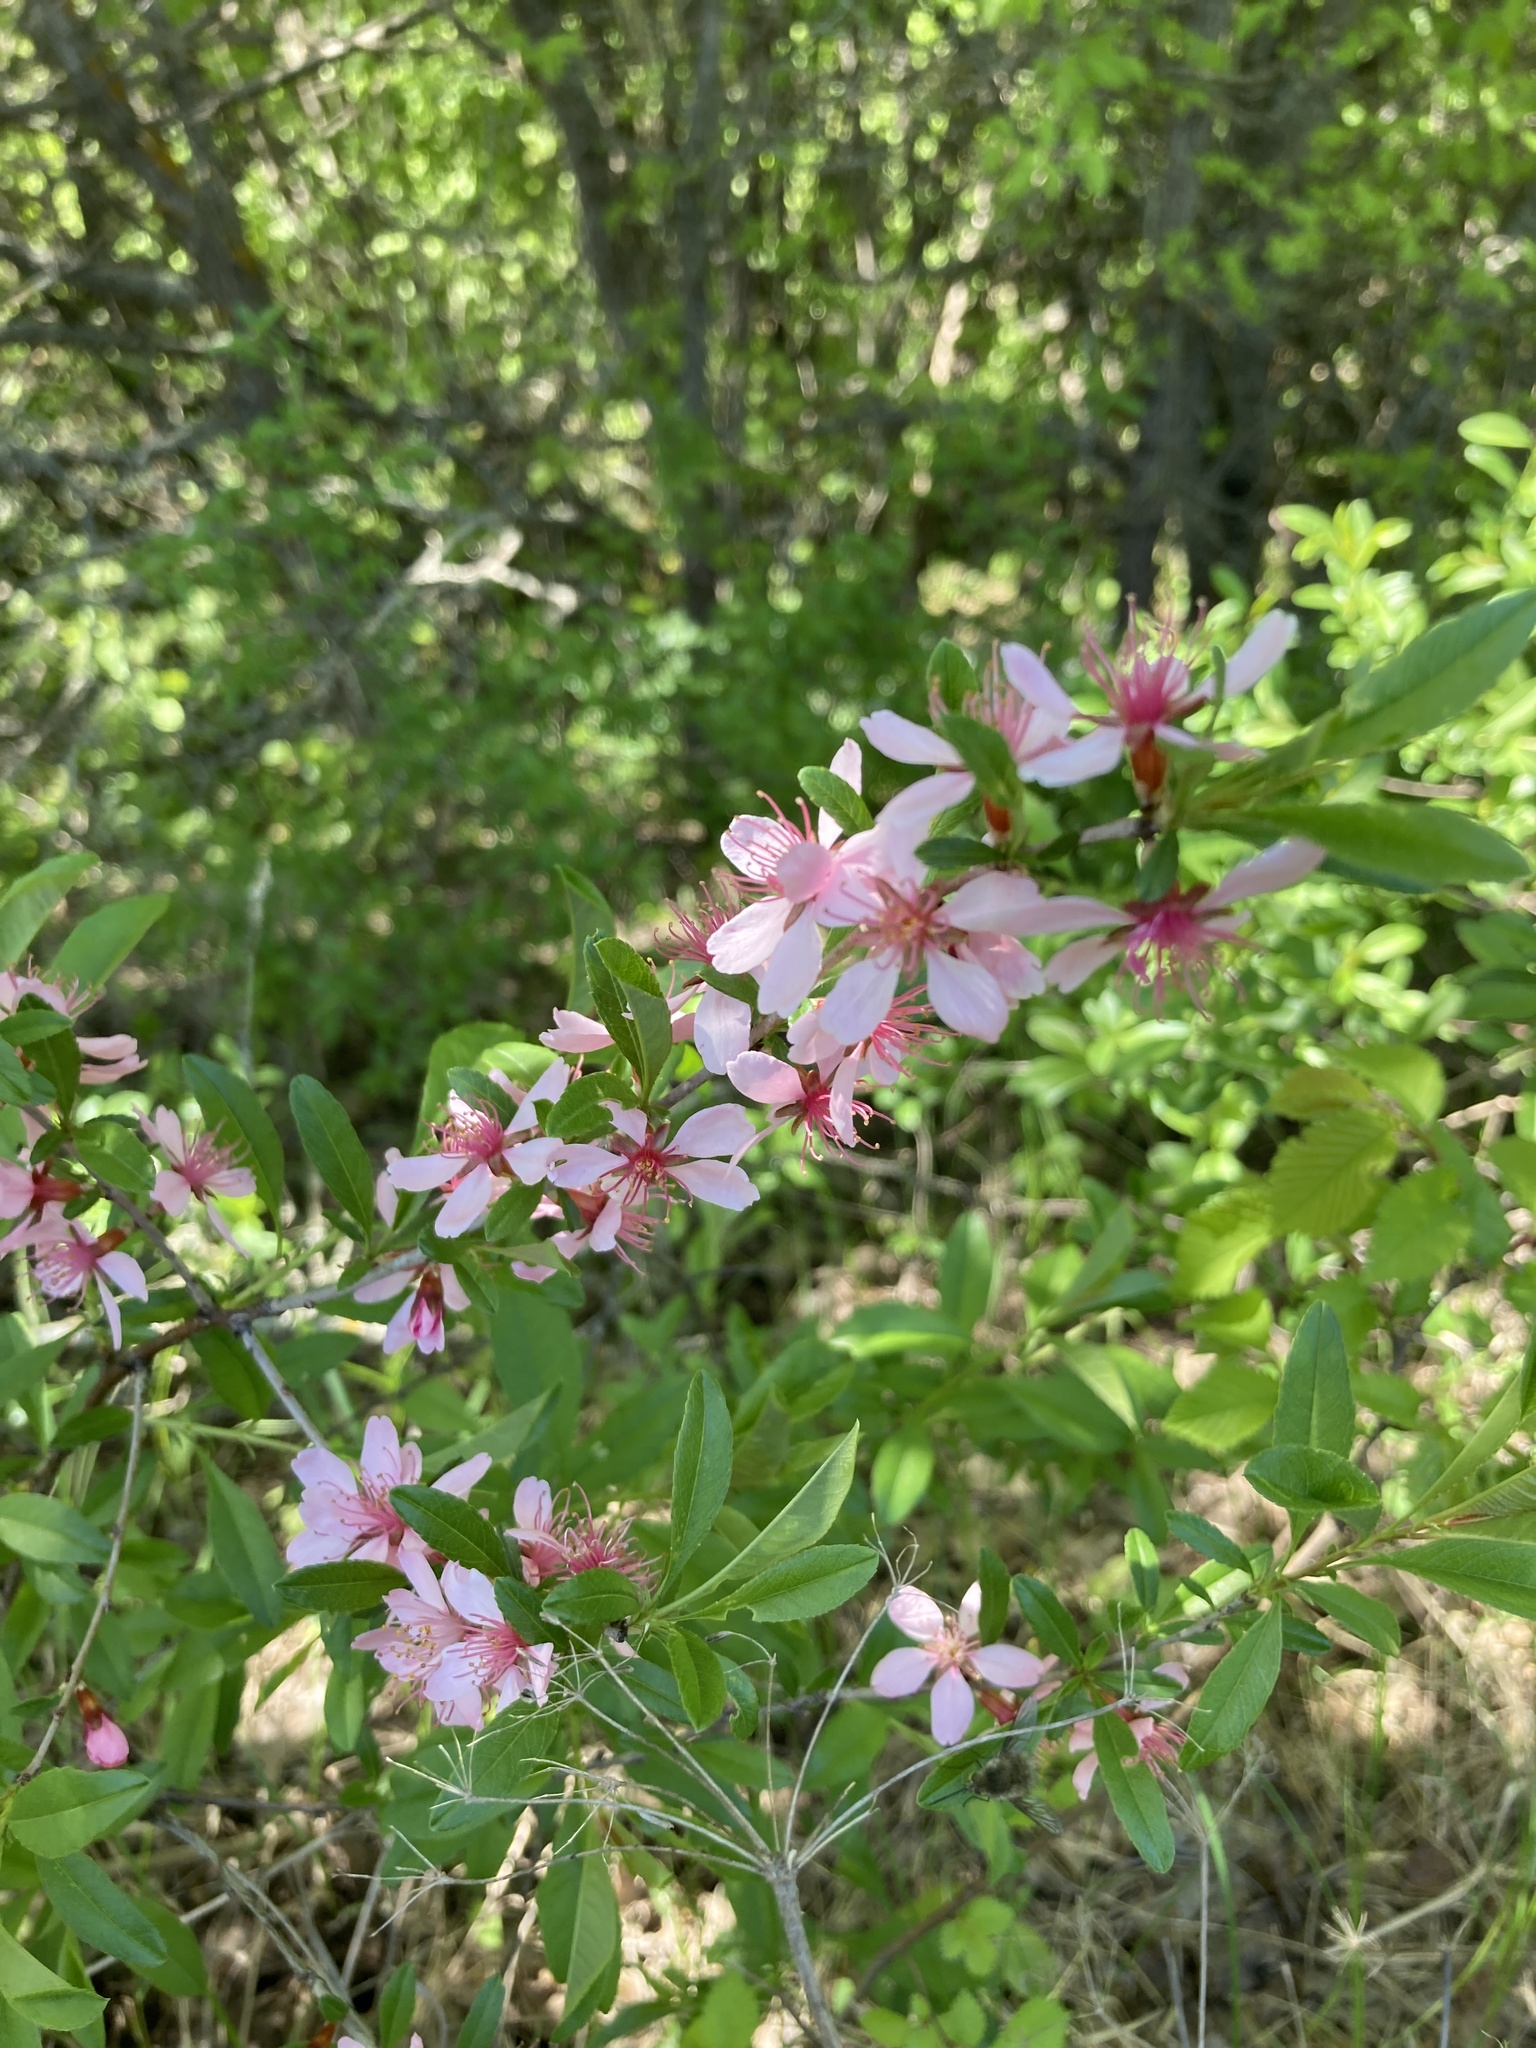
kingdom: Plantae
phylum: Tracheophyta
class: Magnoliopsida
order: Rosales
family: Rosaceae
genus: Prunus
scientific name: Prunus tenella
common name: Dwarf russian almond
